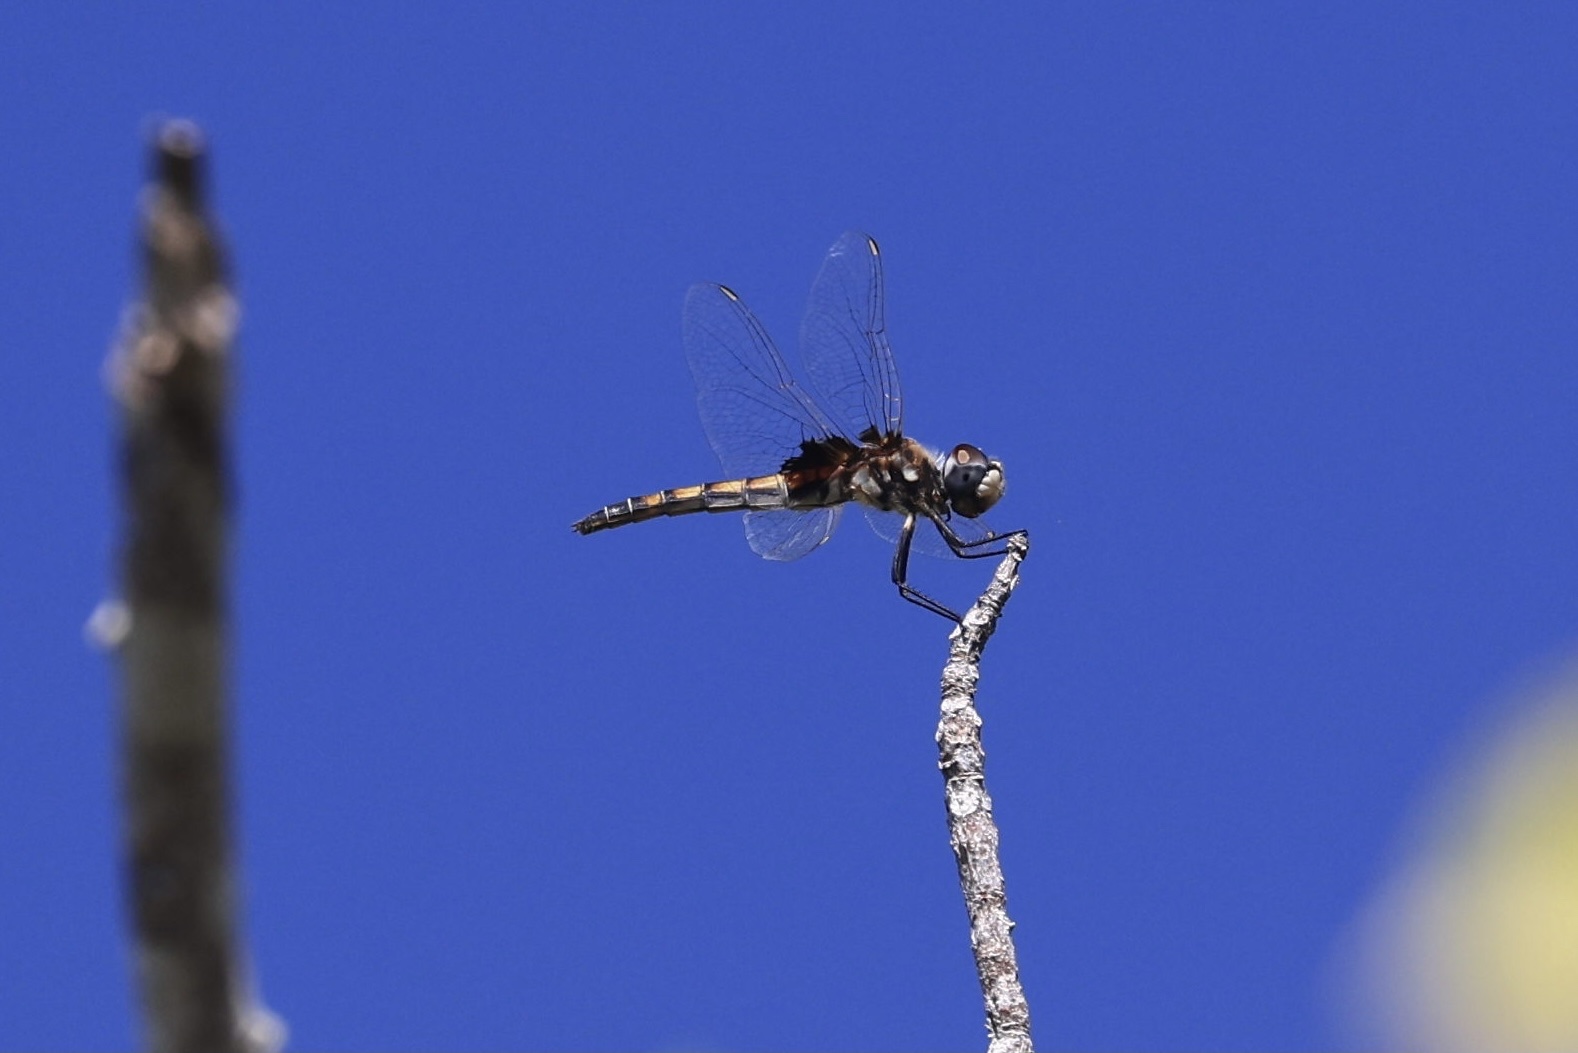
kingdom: Animalia
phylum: Arthropoda
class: Insecta
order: Odonata
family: Libellulidae
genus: Macrodiplax
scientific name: Macrodiplax balteata
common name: Marl pennant
